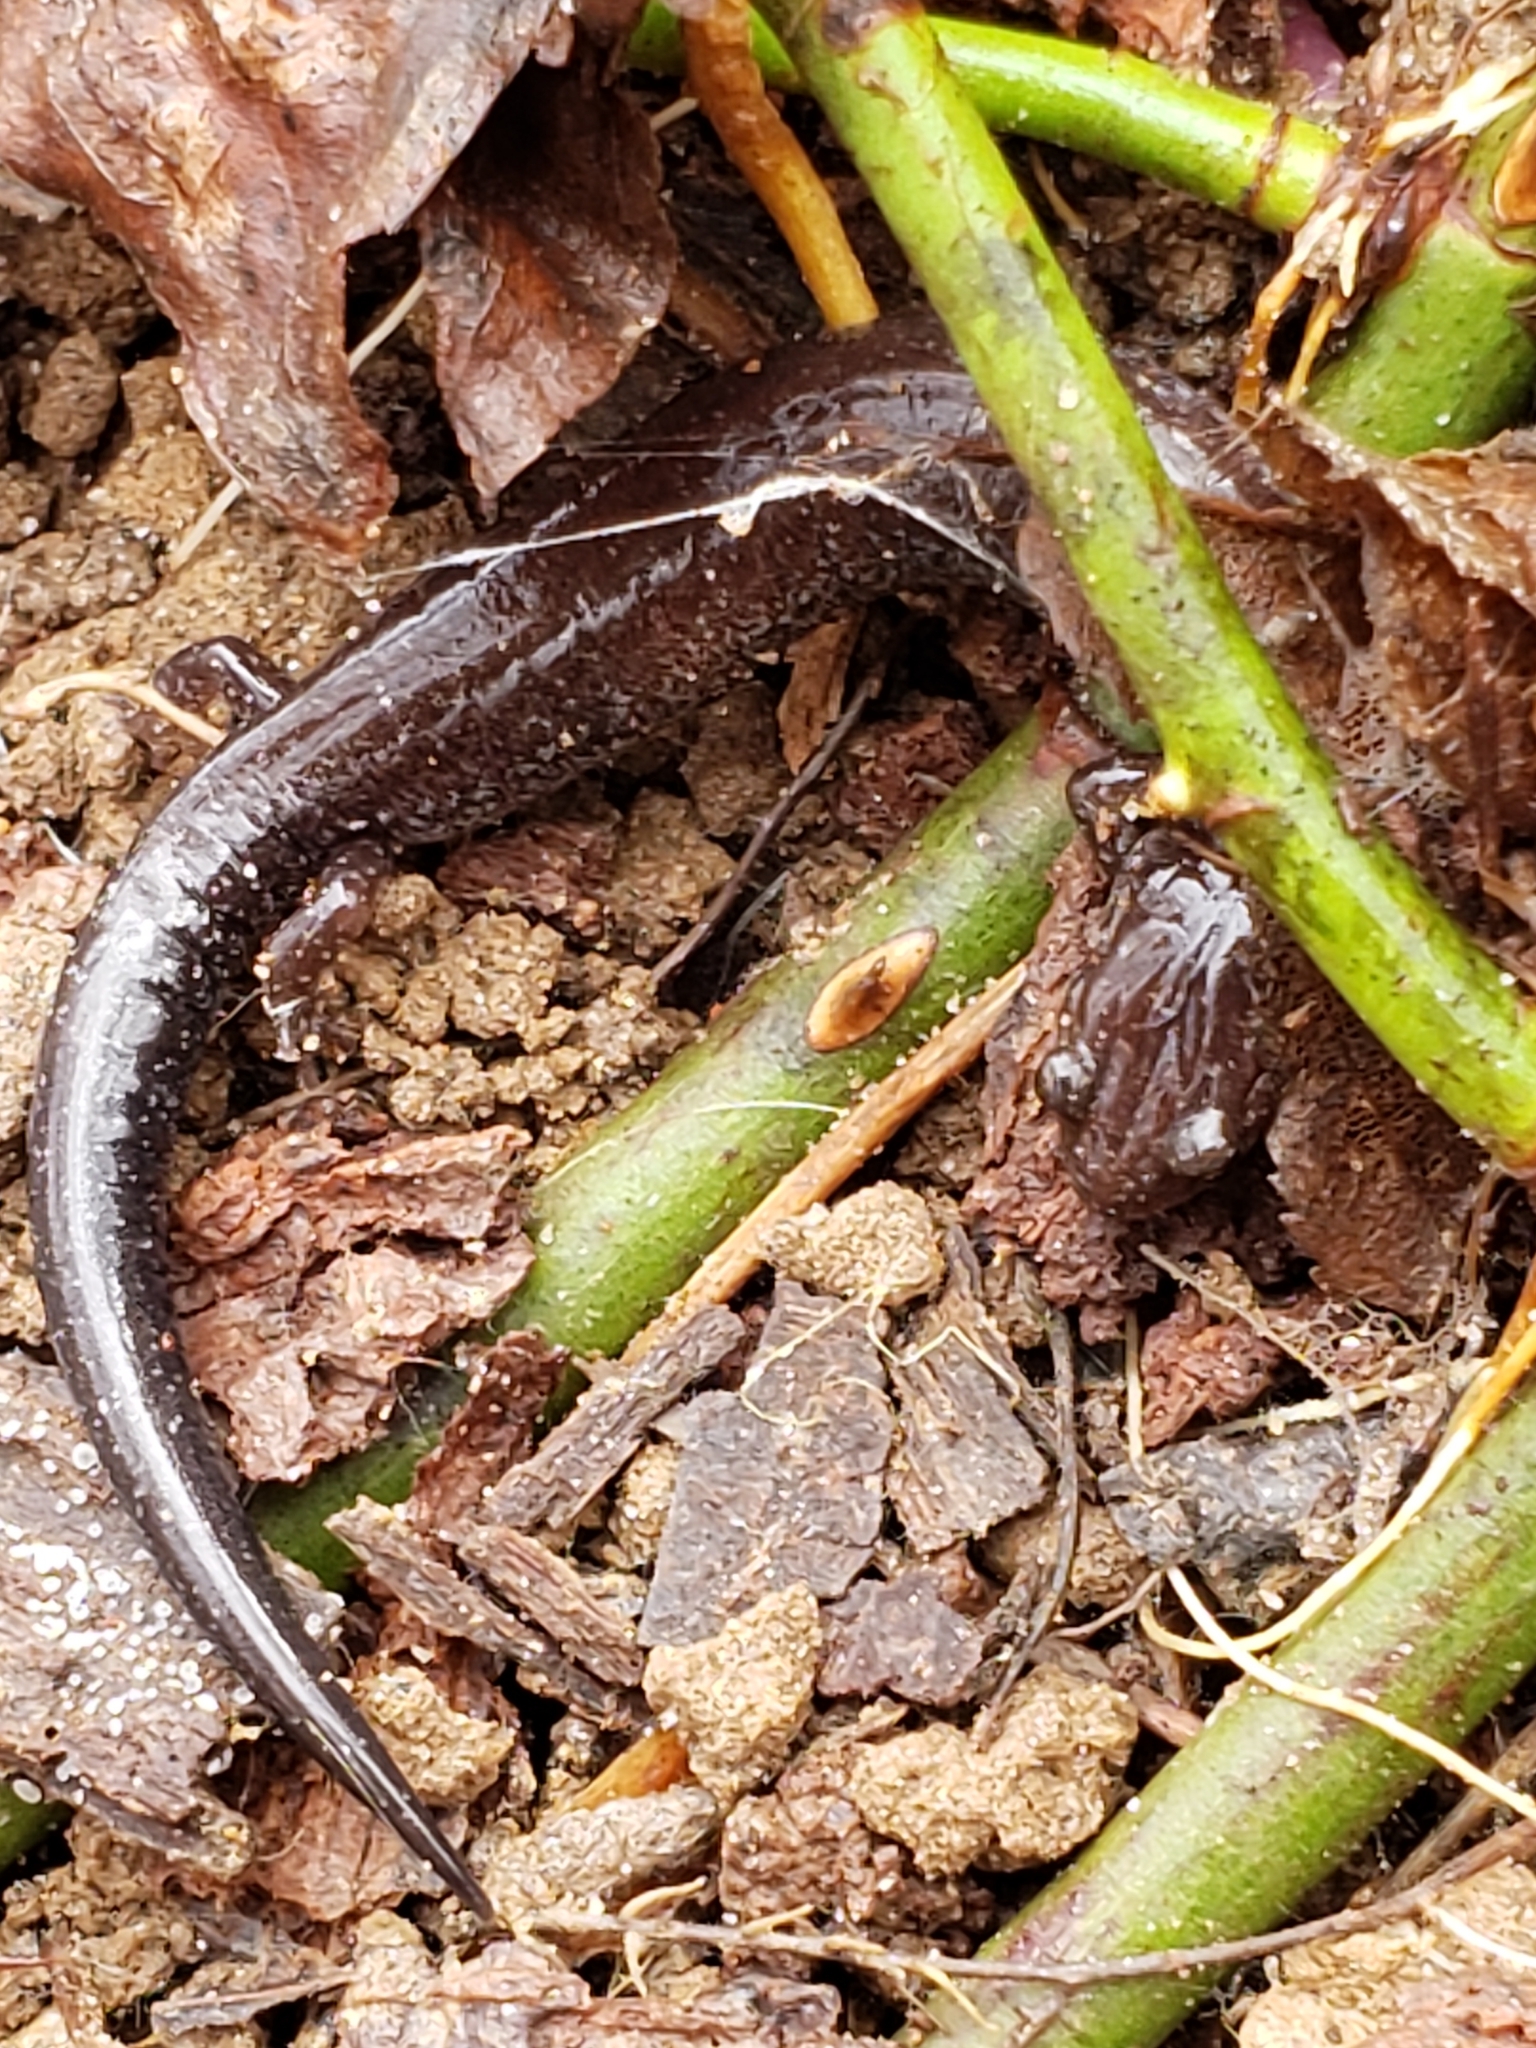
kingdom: Animalia
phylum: Chordata
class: Amphibia
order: Caudata
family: Plethodontidae
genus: Plethodon
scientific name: Plethodon cinereus
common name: Redback salamander
